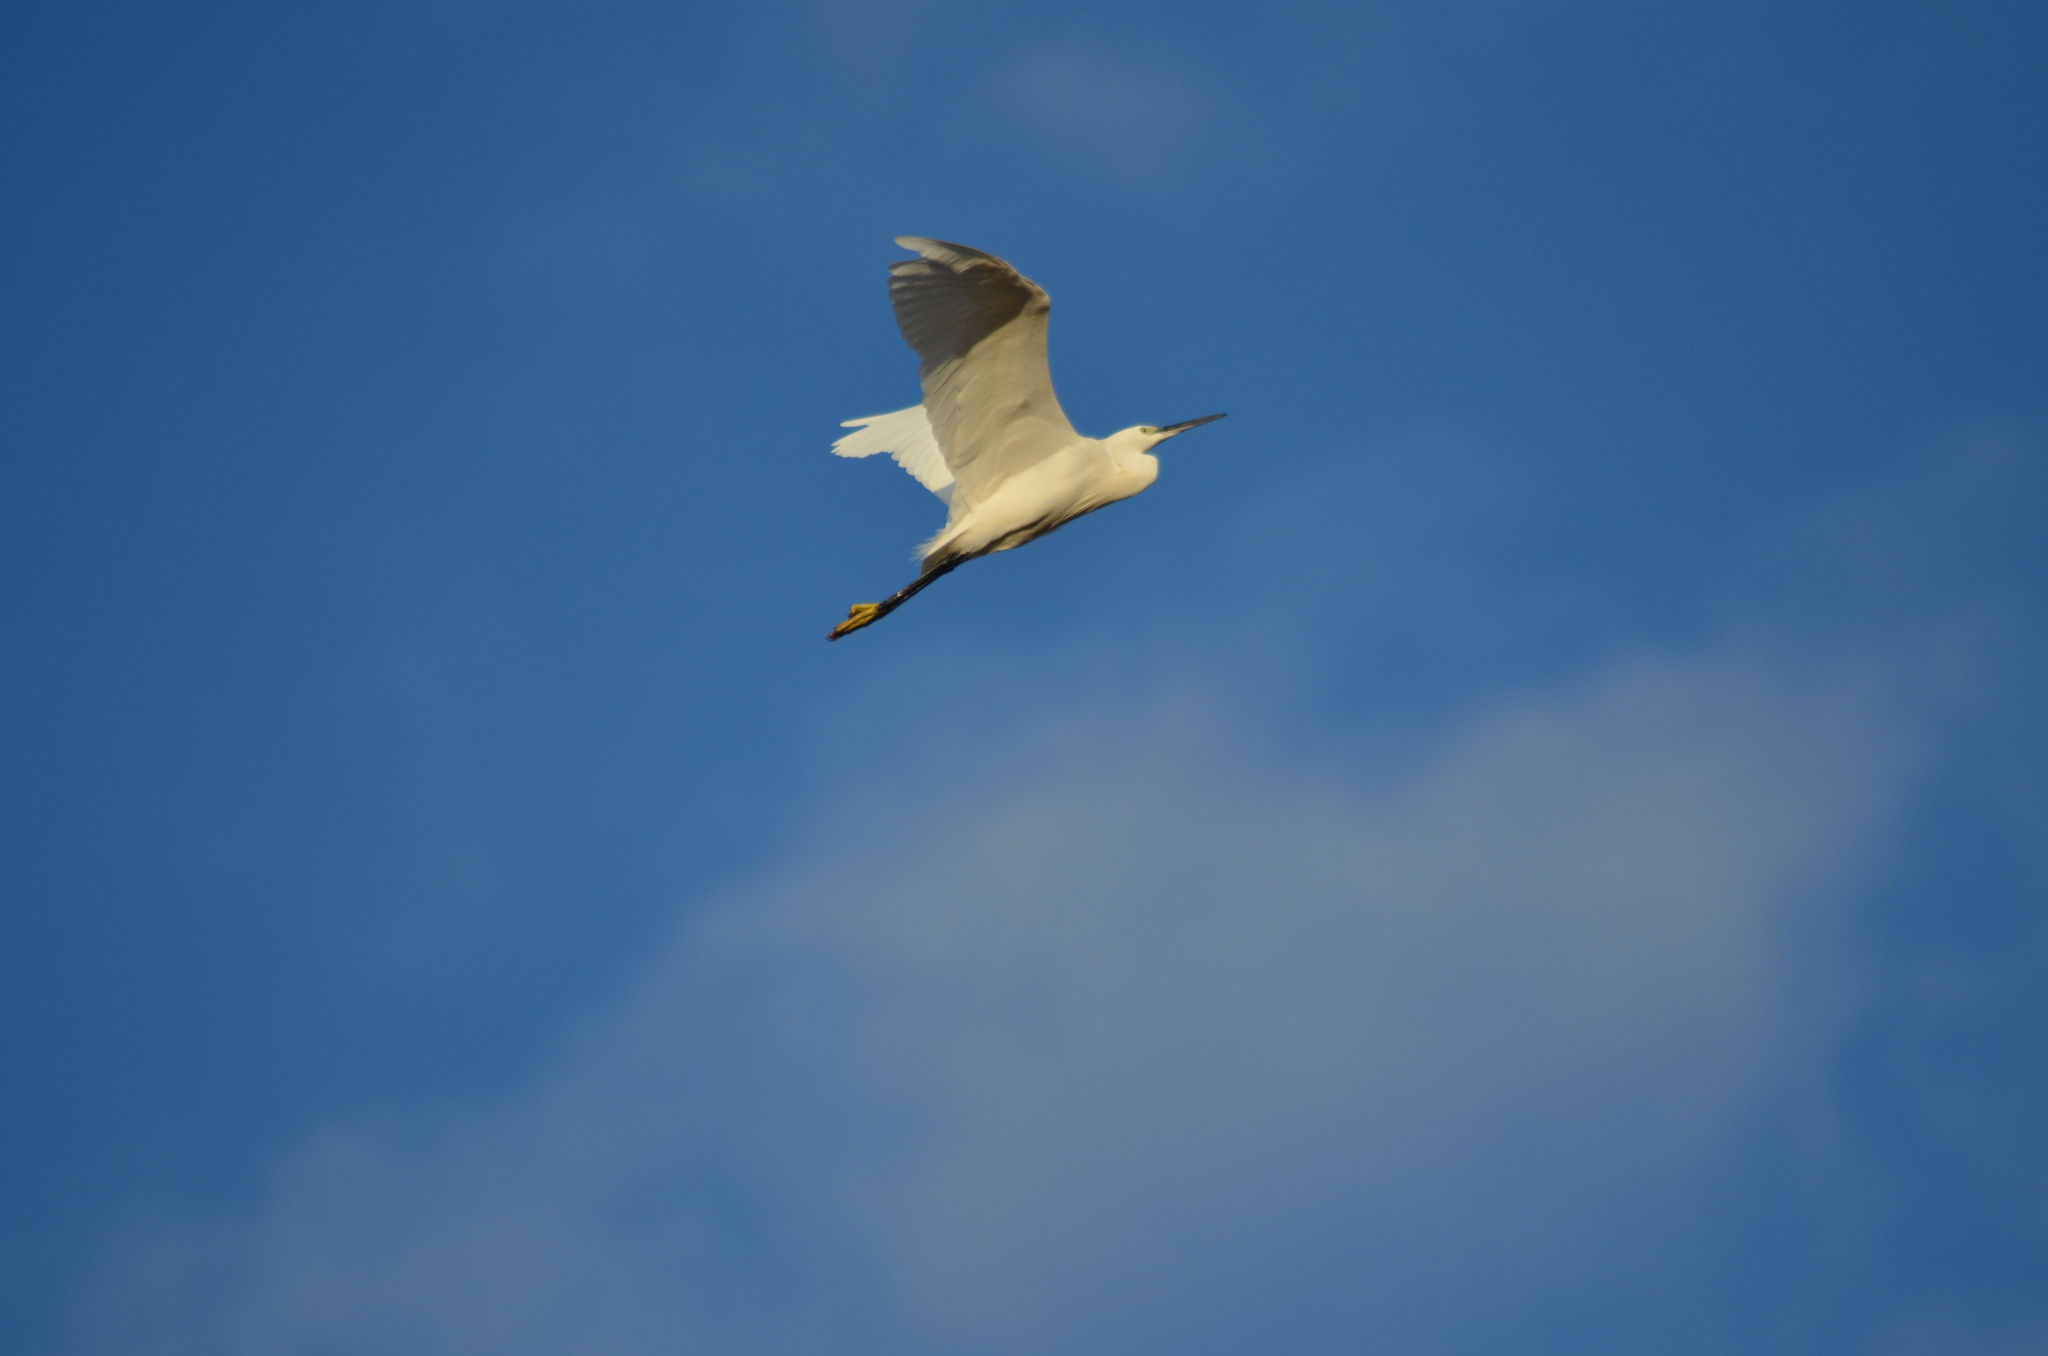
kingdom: Animalia
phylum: Chordata
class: Aves
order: Pelecaniformes
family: Ardeidae
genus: Egretta
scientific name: Egretta garzetta
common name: Little egret
